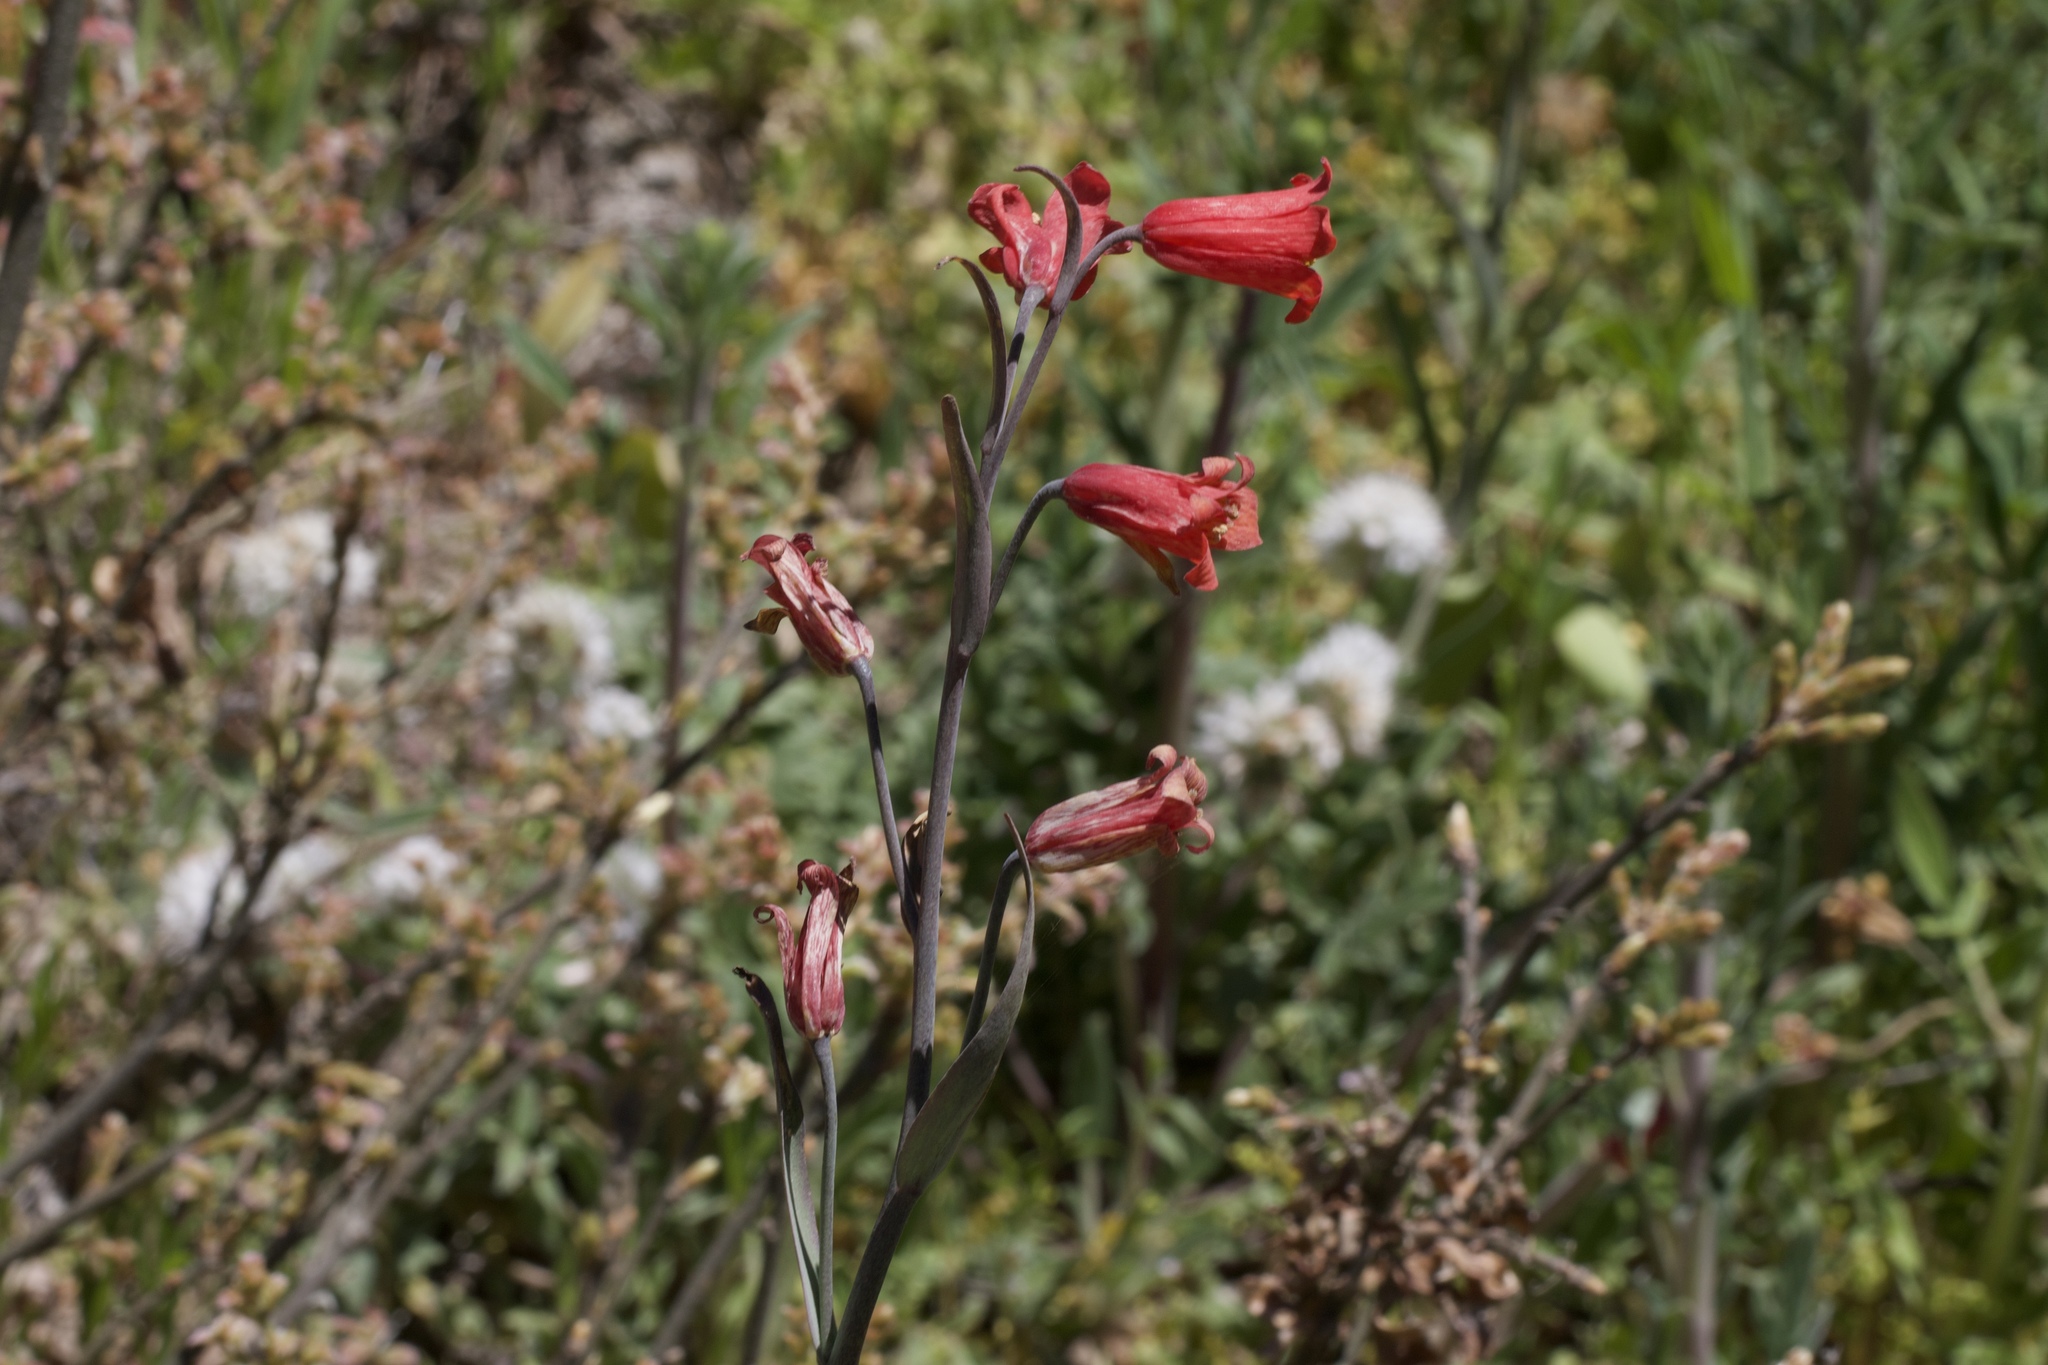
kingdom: Plantae
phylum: Tracheophyta
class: Liliopsida
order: Liliales
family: Liliaceae
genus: Fritillaria
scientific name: Fritillaria recurva
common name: Scarlet fritillary
